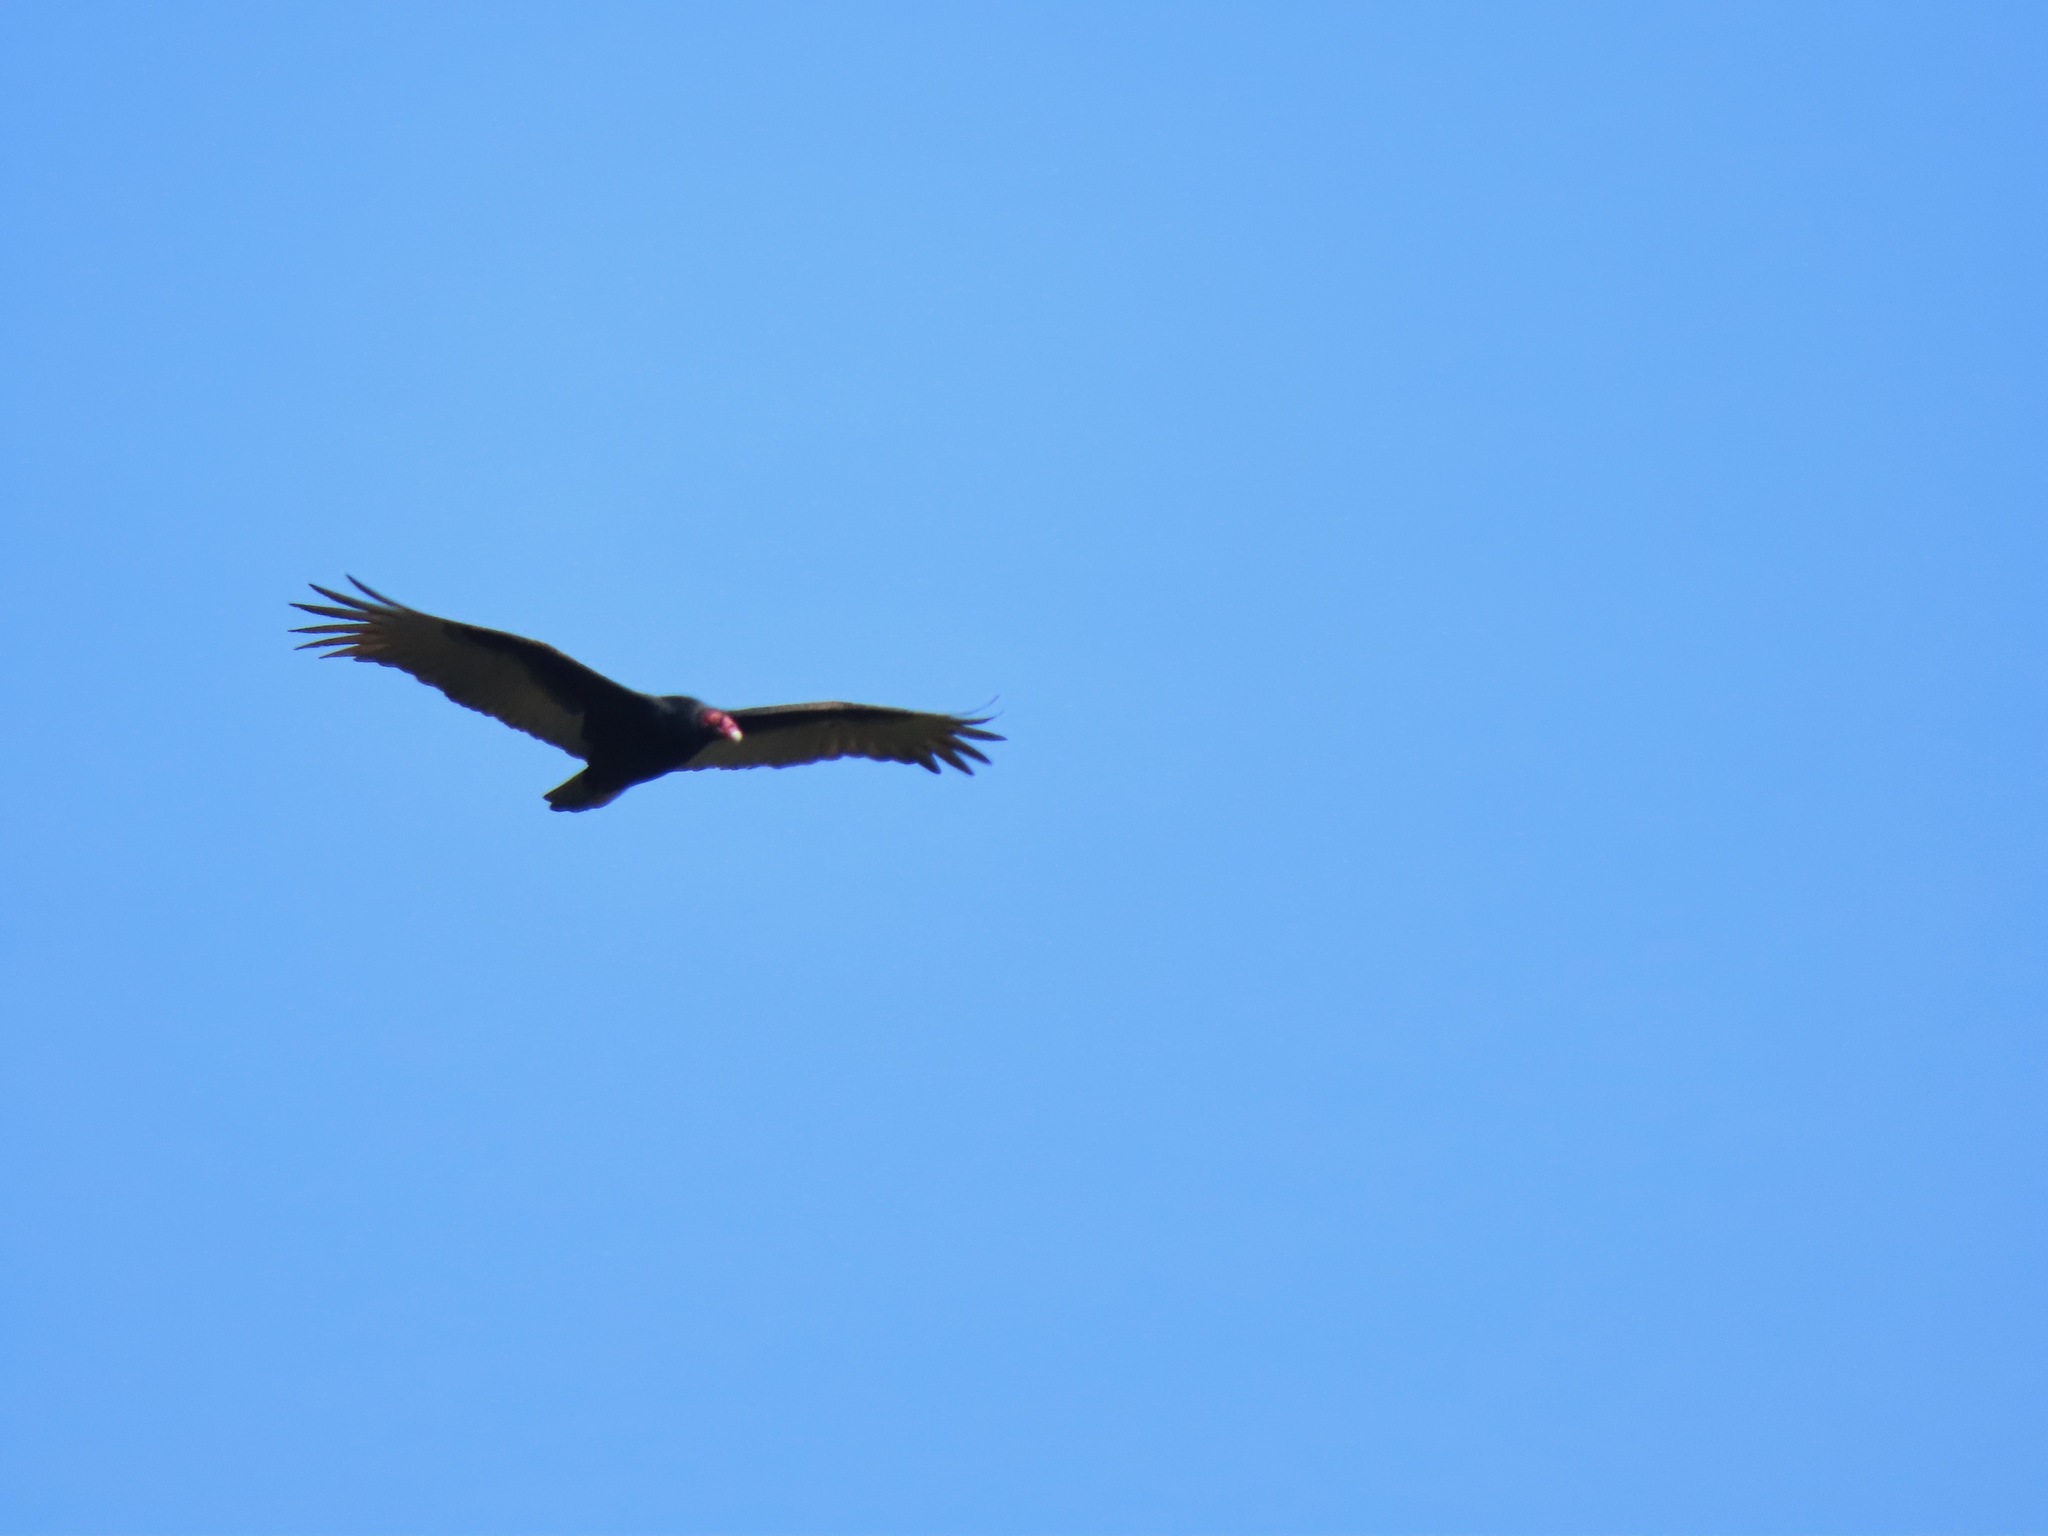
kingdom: Animalia
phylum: Chordata
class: Aves
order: Accipitriformes
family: Cathartidae
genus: Cathartes
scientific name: Cathartes aura
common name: Turkey vulture
